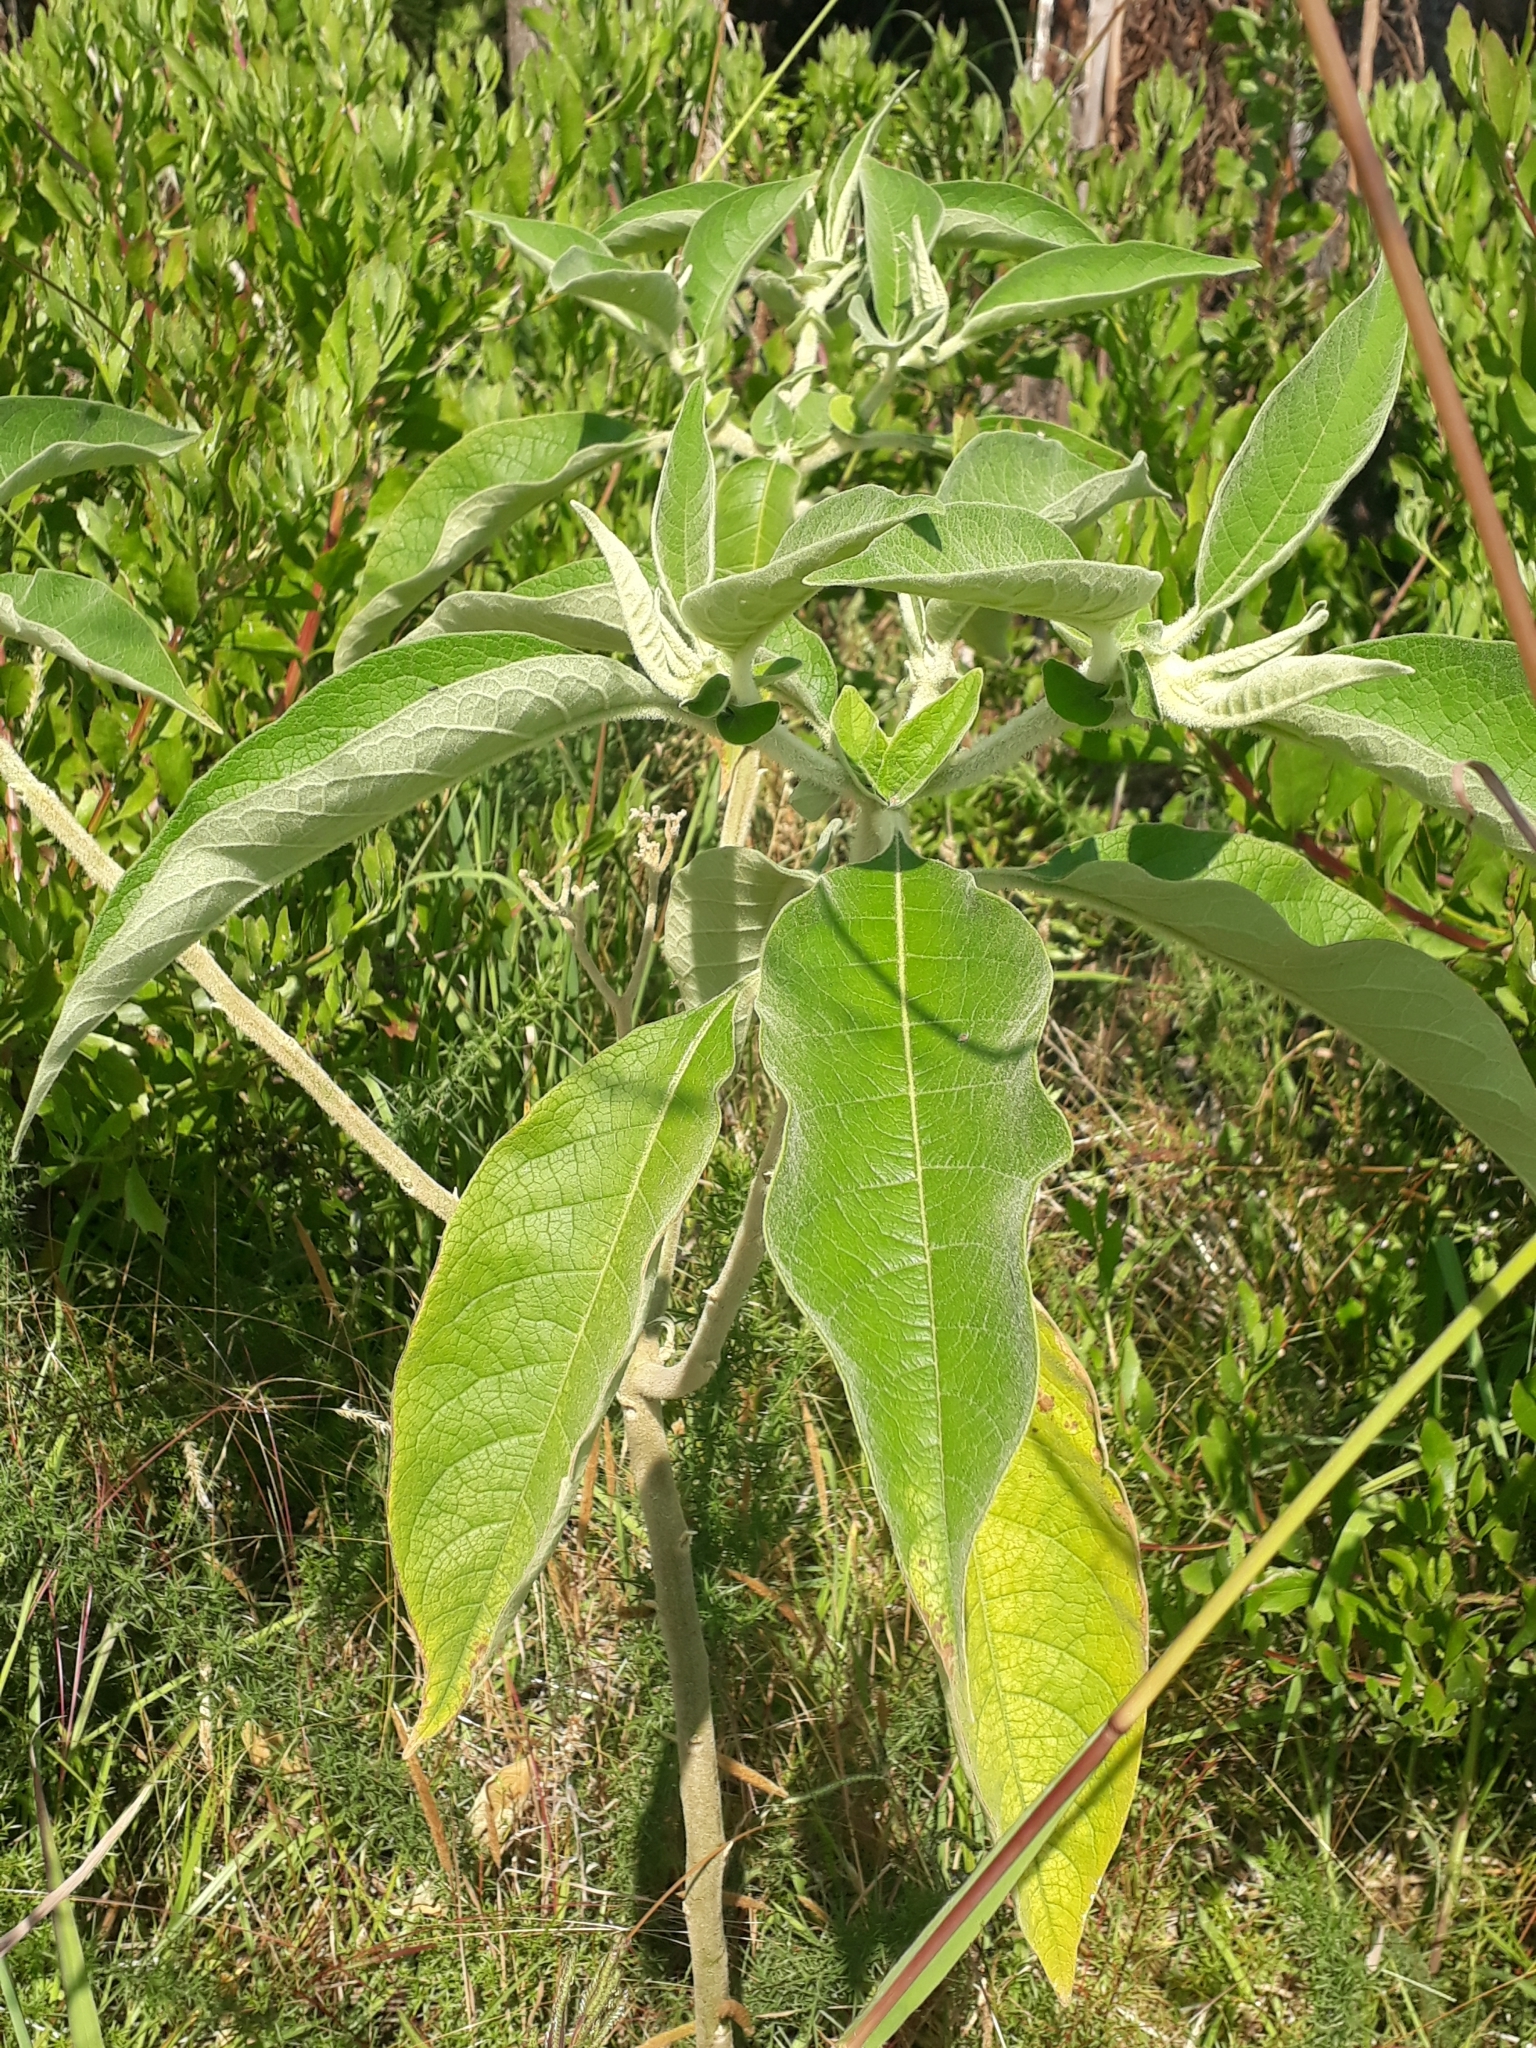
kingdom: Plantae
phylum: Tracheophyta
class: Magnoliopsida
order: Solanales
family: Solanaceae
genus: Solanum
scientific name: Solanum mauritianum
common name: Earleaf nightshade
